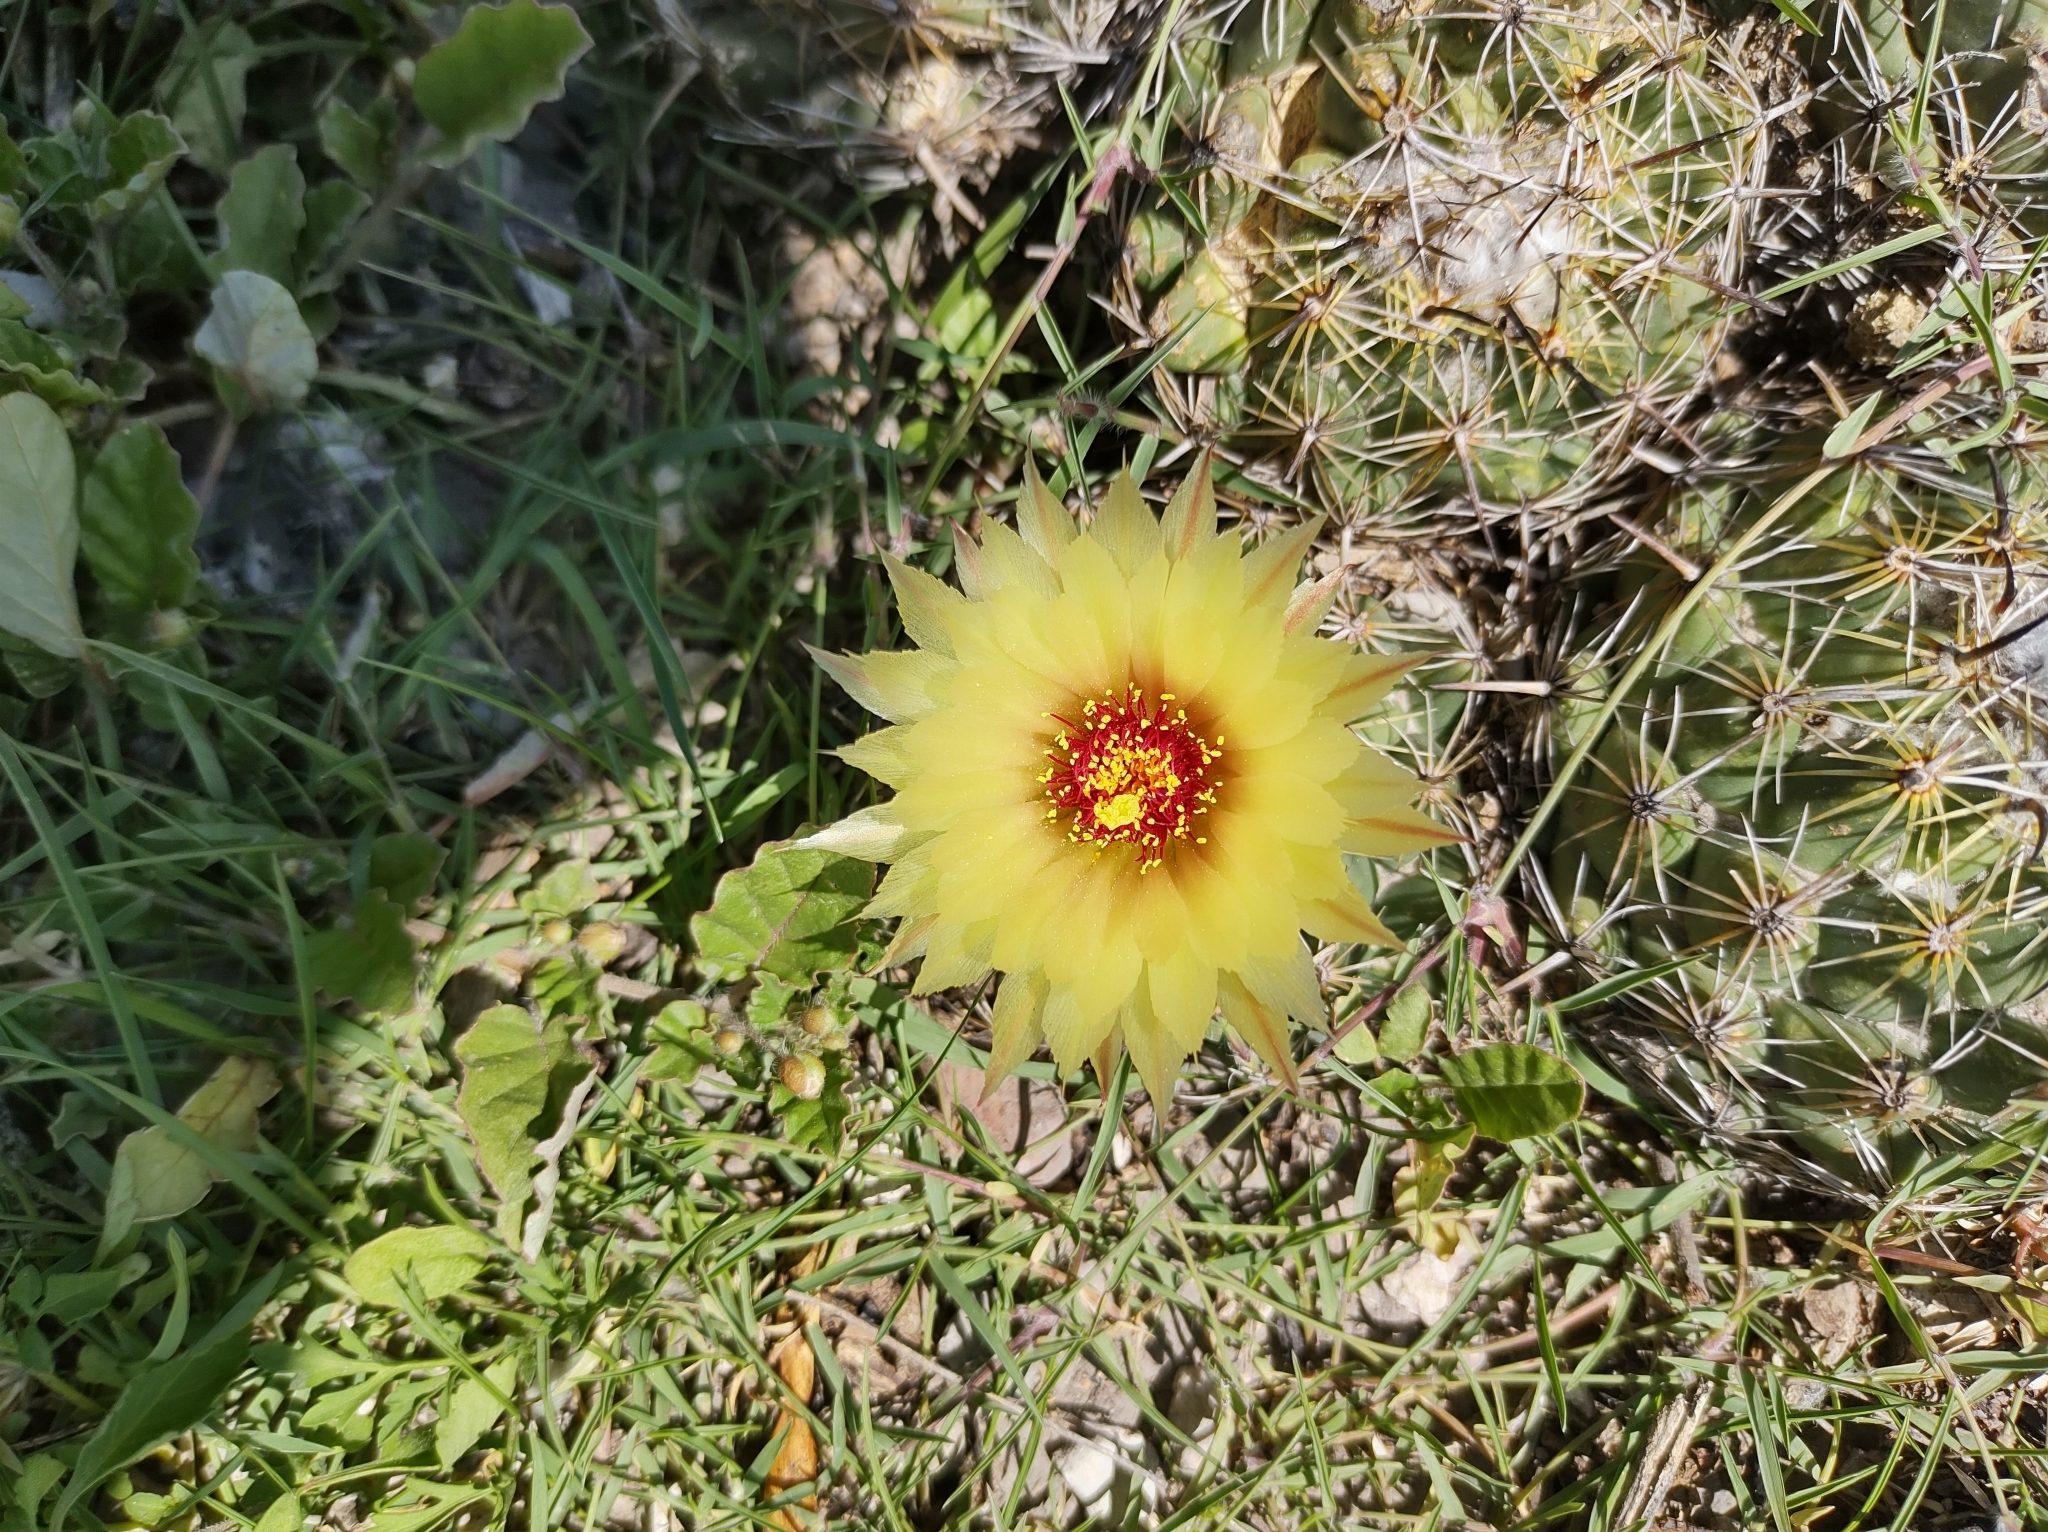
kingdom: Plantae
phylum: Tracheophyta
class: Magnoliopsida
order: Caryophyllales
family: Cactaceae
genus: Coryphantha
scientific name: Coryphantha pallida
